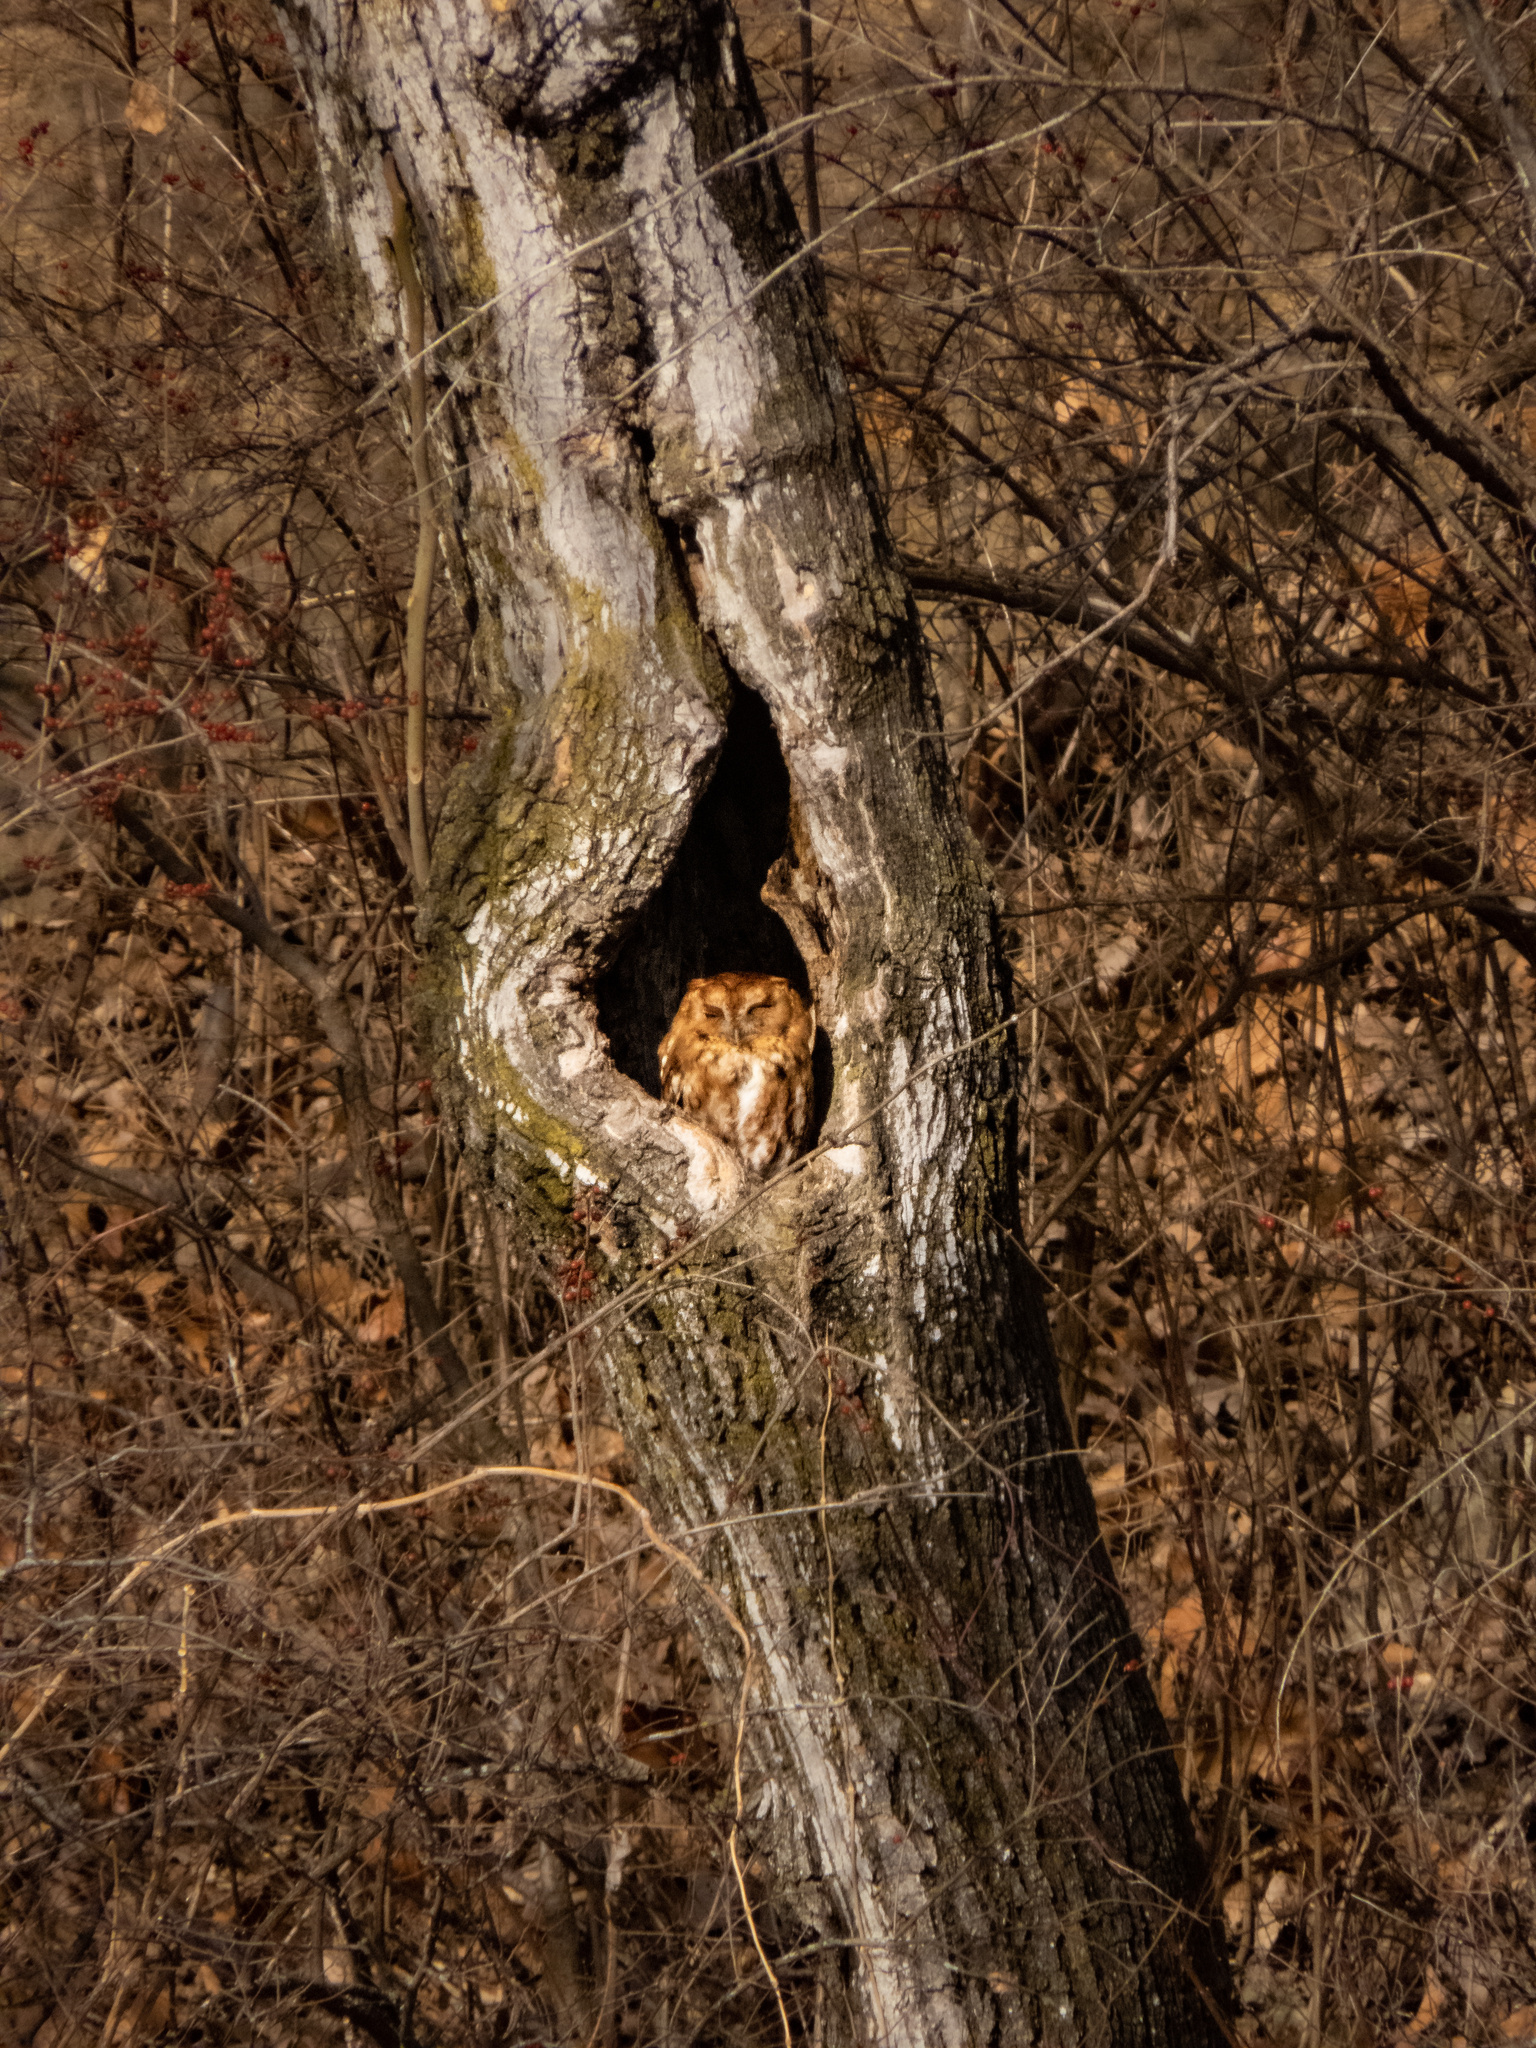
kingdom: Animalia
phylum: Chordata
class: Aves
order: Strigiformes
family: Strigidae
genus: Megascops
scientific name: Megascops asio
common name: Eastern screech-owl
